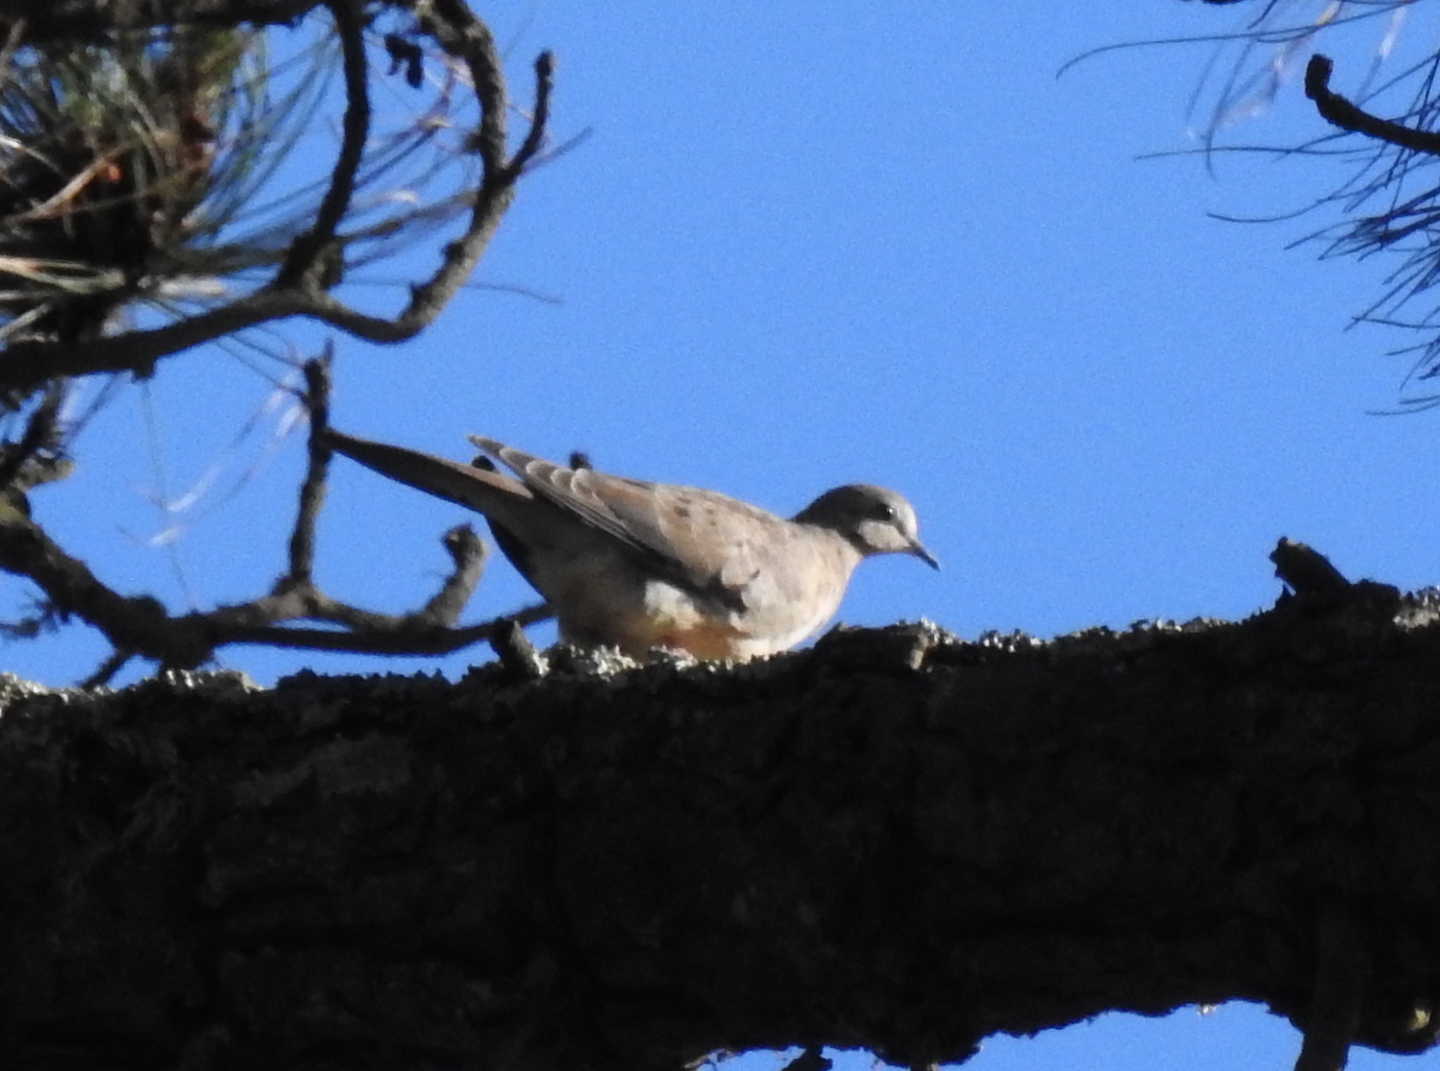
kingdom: Animalia
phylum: Chordata
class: Aves
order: Columbiformes
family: Columbidae
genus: Zenaida
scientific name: Zenaida macroura
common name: Mourning dove
